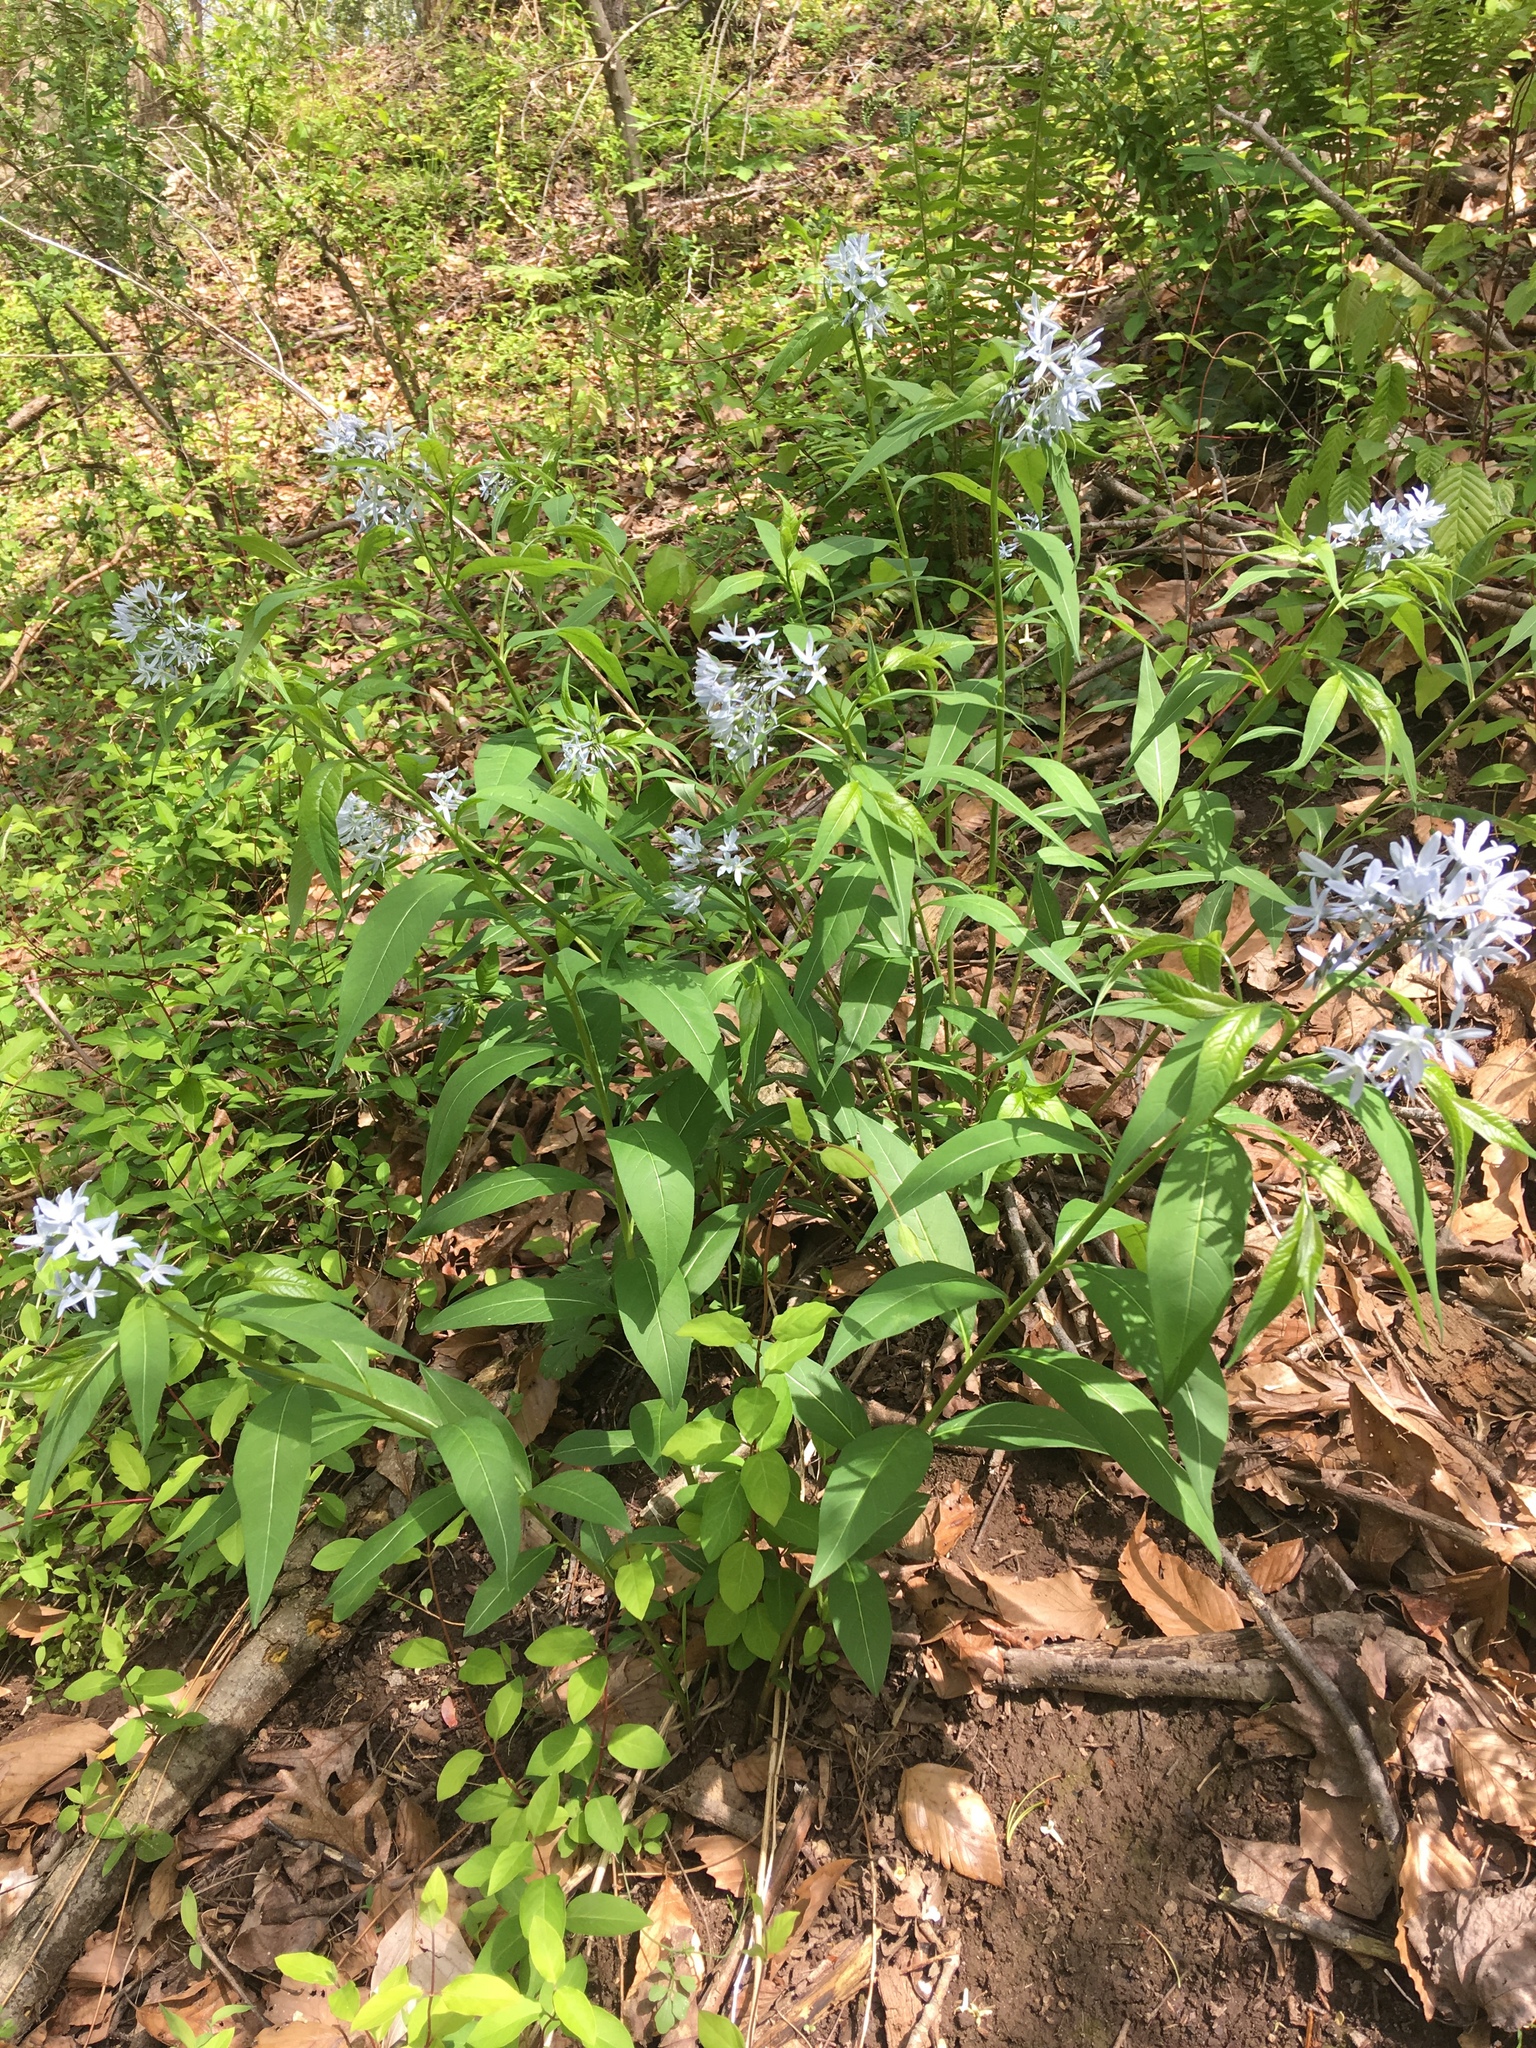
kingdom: Plantae
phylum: Tracheophyta
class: Magnoliopsida
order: Gentianales
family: Apocynaceae
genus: Amsonia
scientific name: Amsonia tabernaemontana
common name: Texas-star
